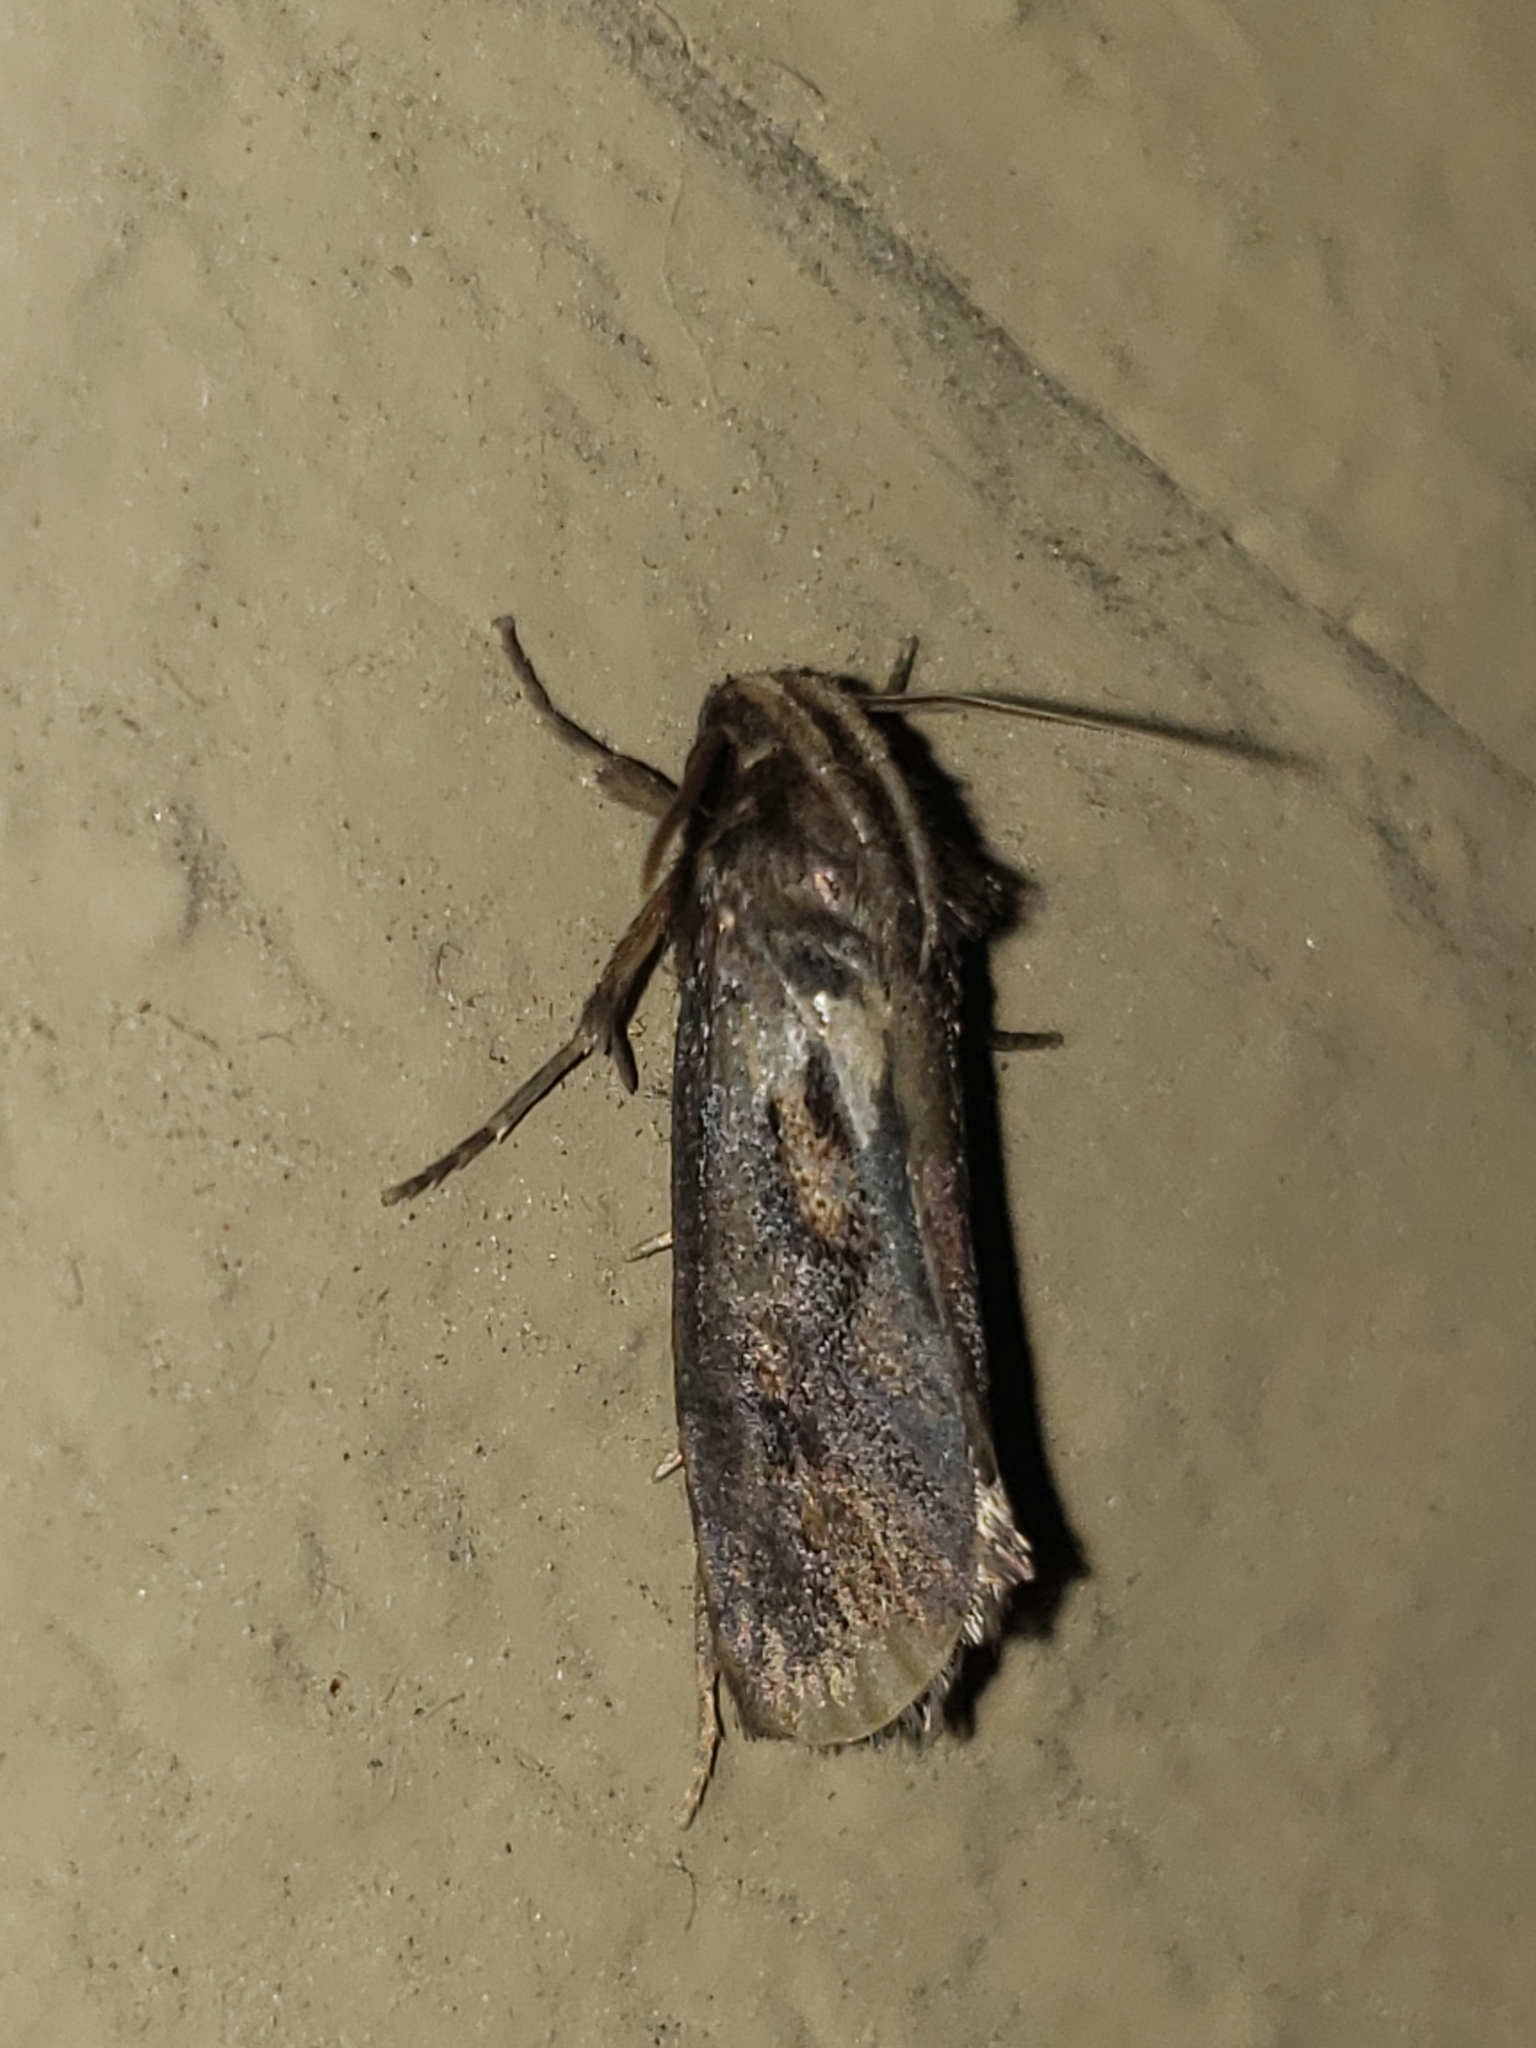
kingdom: Animalia
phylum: Arthropoda
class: Insecta
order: Lepidoptera
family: Tineidae
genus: Acrolophus
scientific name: Acrolophus popeanella
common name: Clemens' grass tubeworm moth
